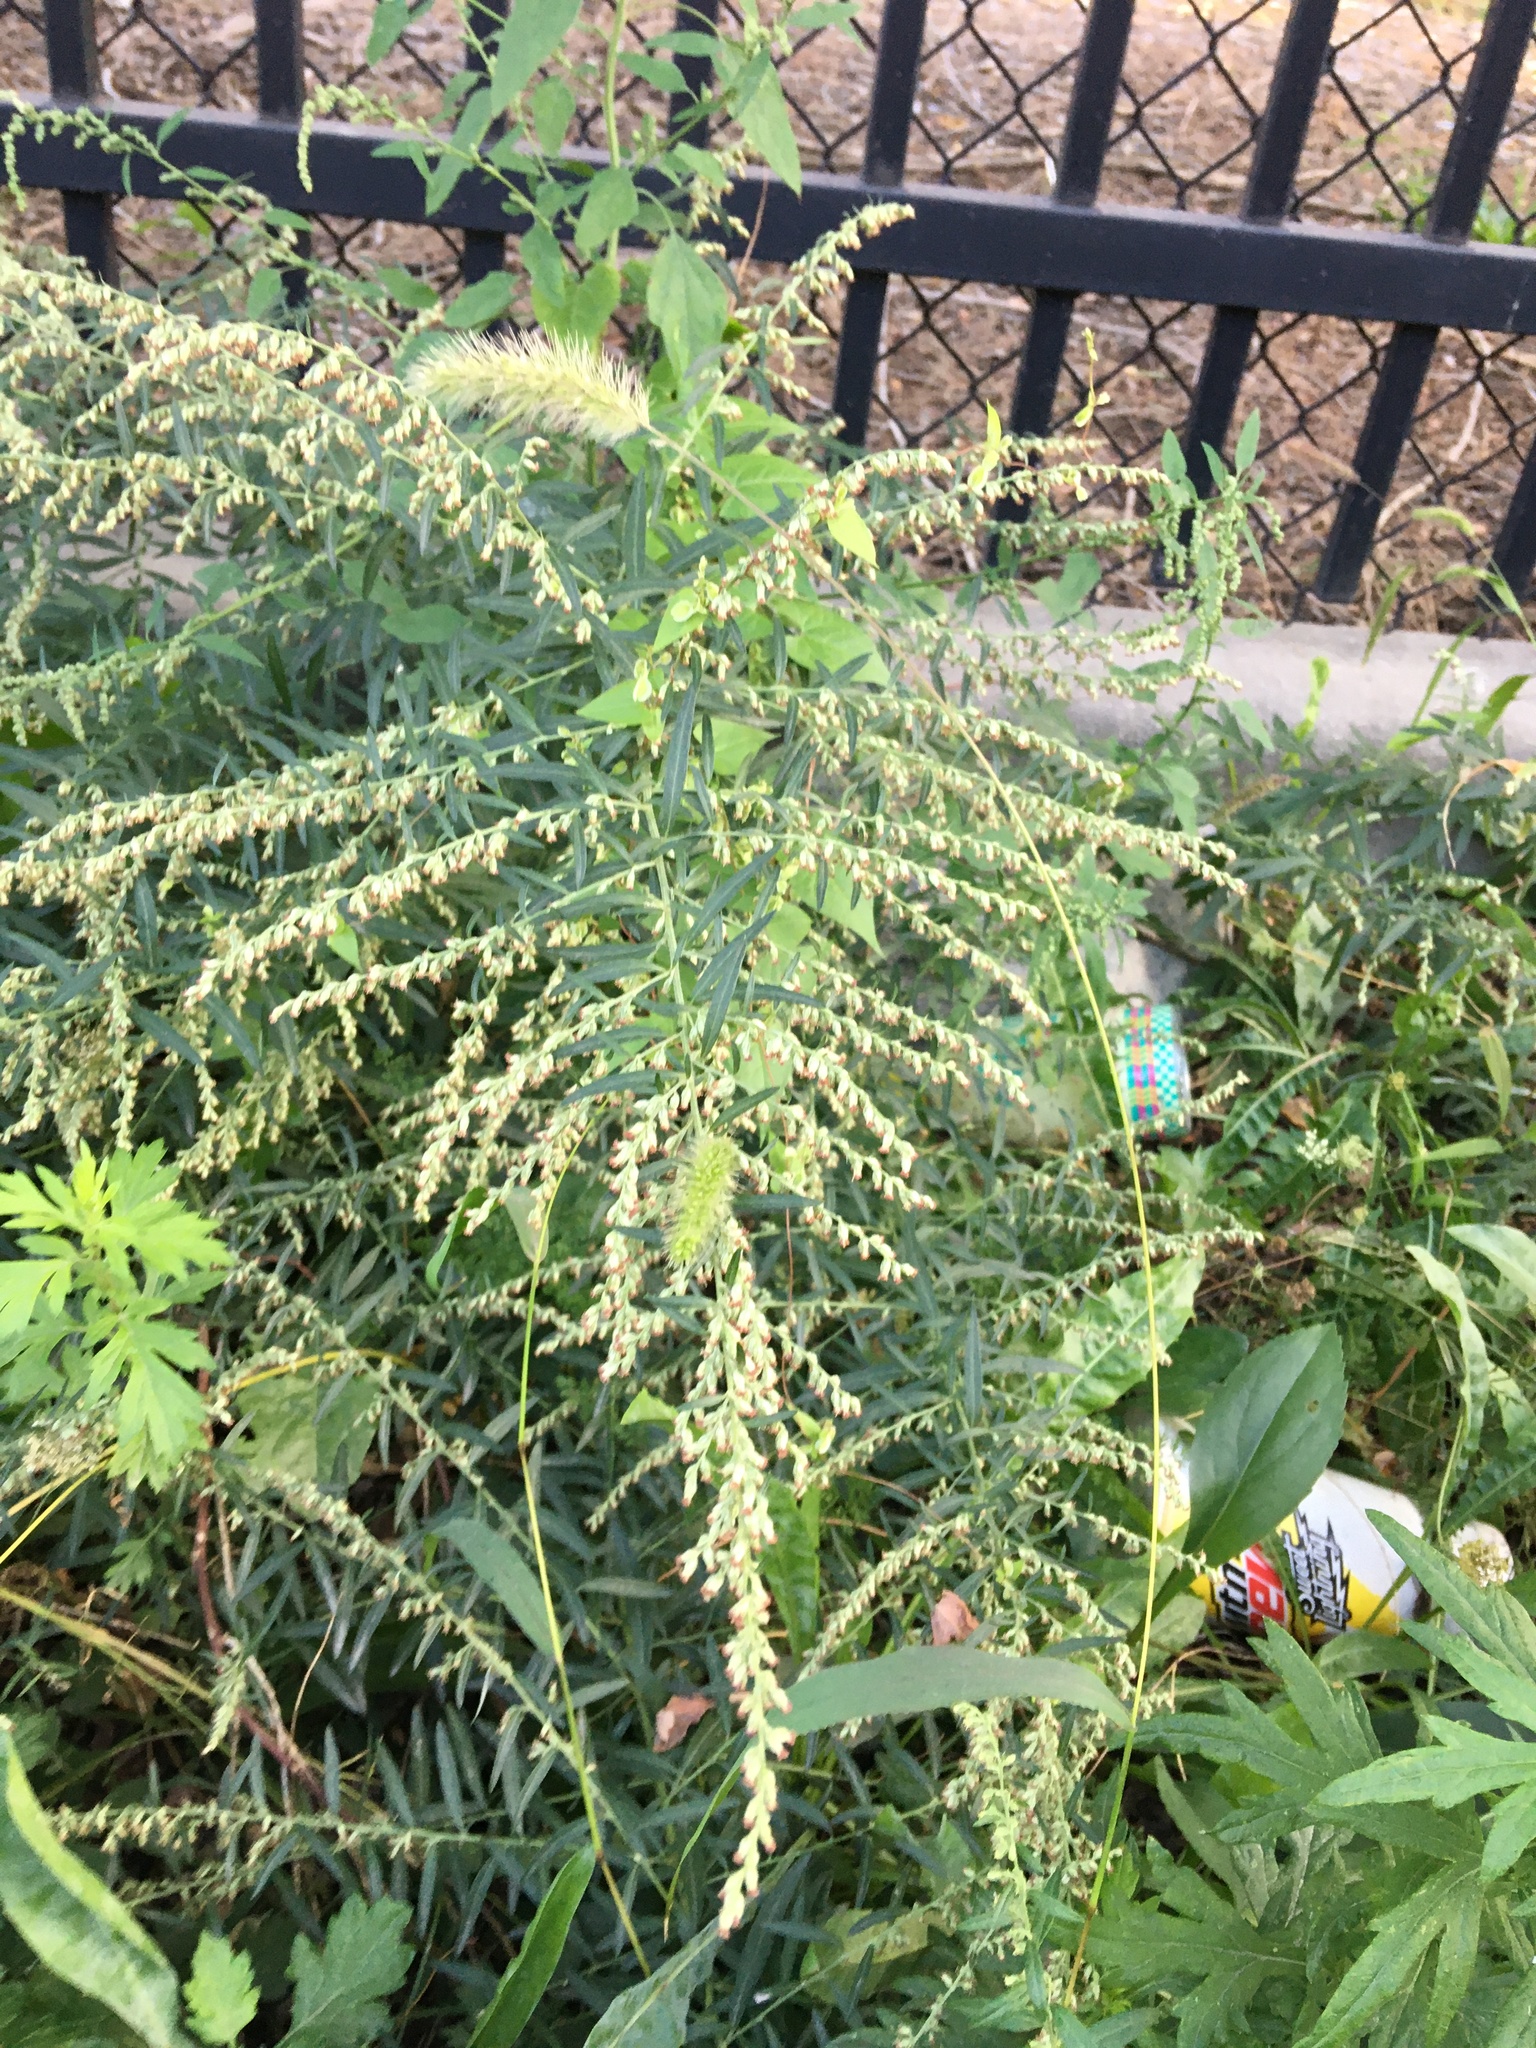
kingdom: Plantae
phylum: Tracheophyta
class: Magnoliopsida
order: Asterales
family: Asteraceae
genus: Artemisia
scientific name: Artemisia vulgaris
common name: Mugwort
